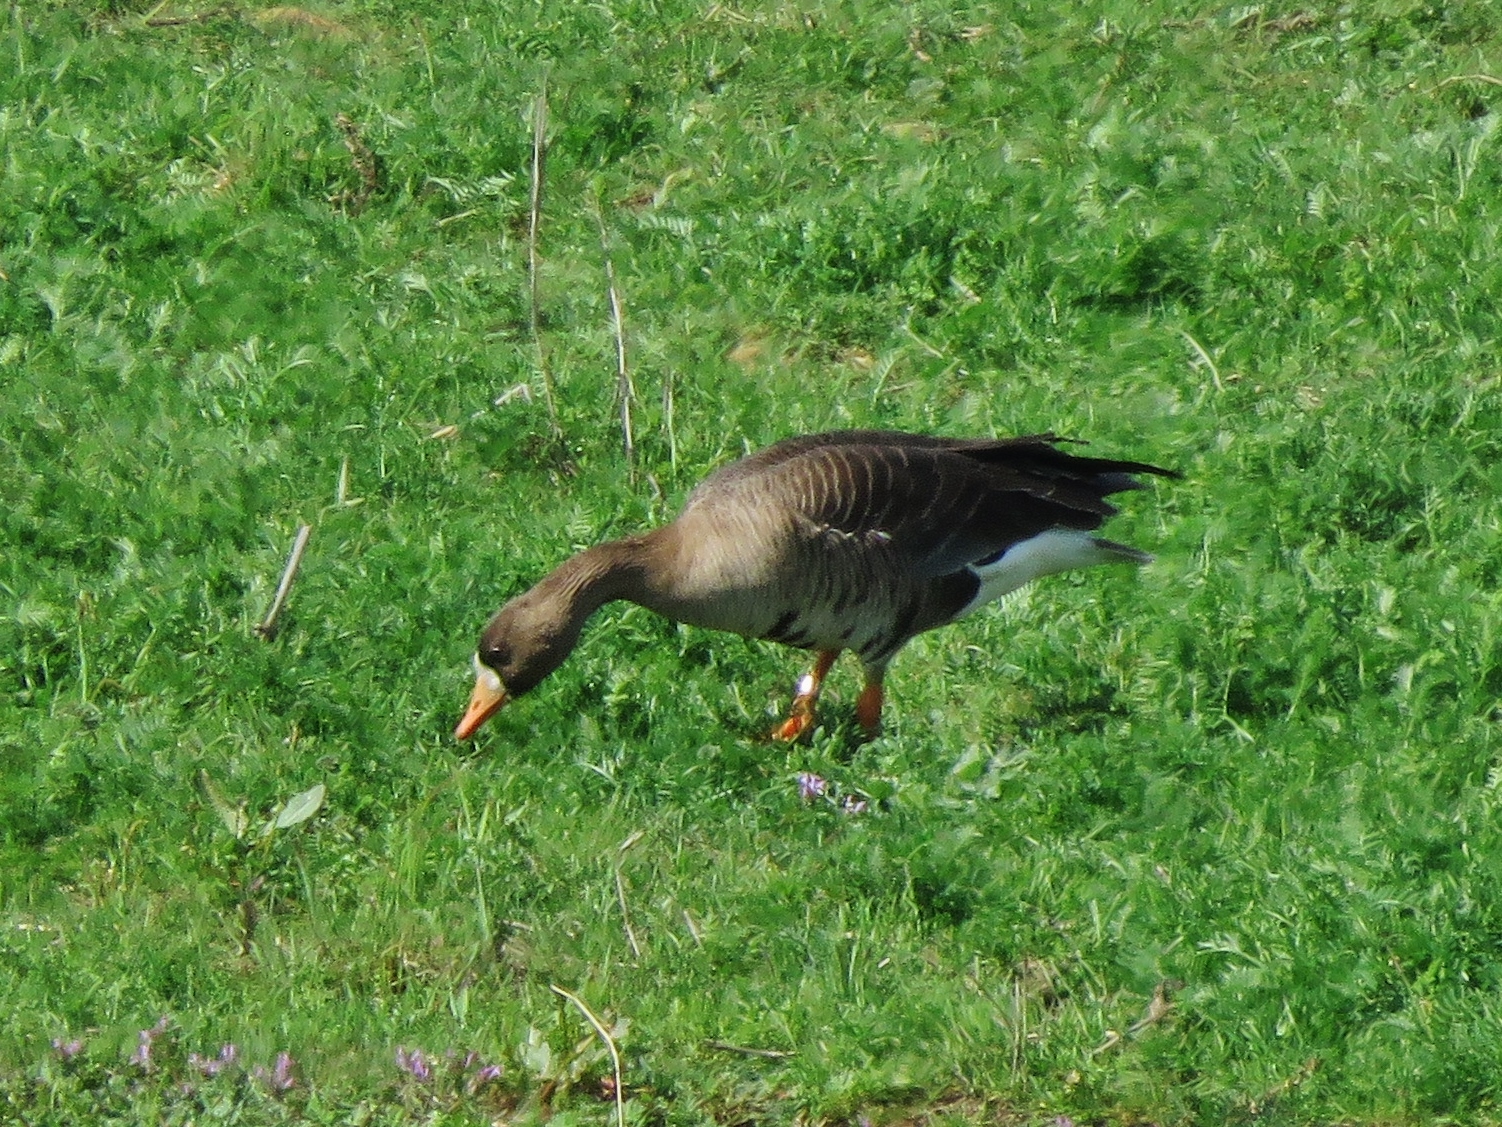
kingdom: Animalia
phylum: Chordata
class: Aves
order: Anseriformes
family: Anatidae
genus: Anser
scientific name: Anser albifrons
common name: Greater white-fronted goose
